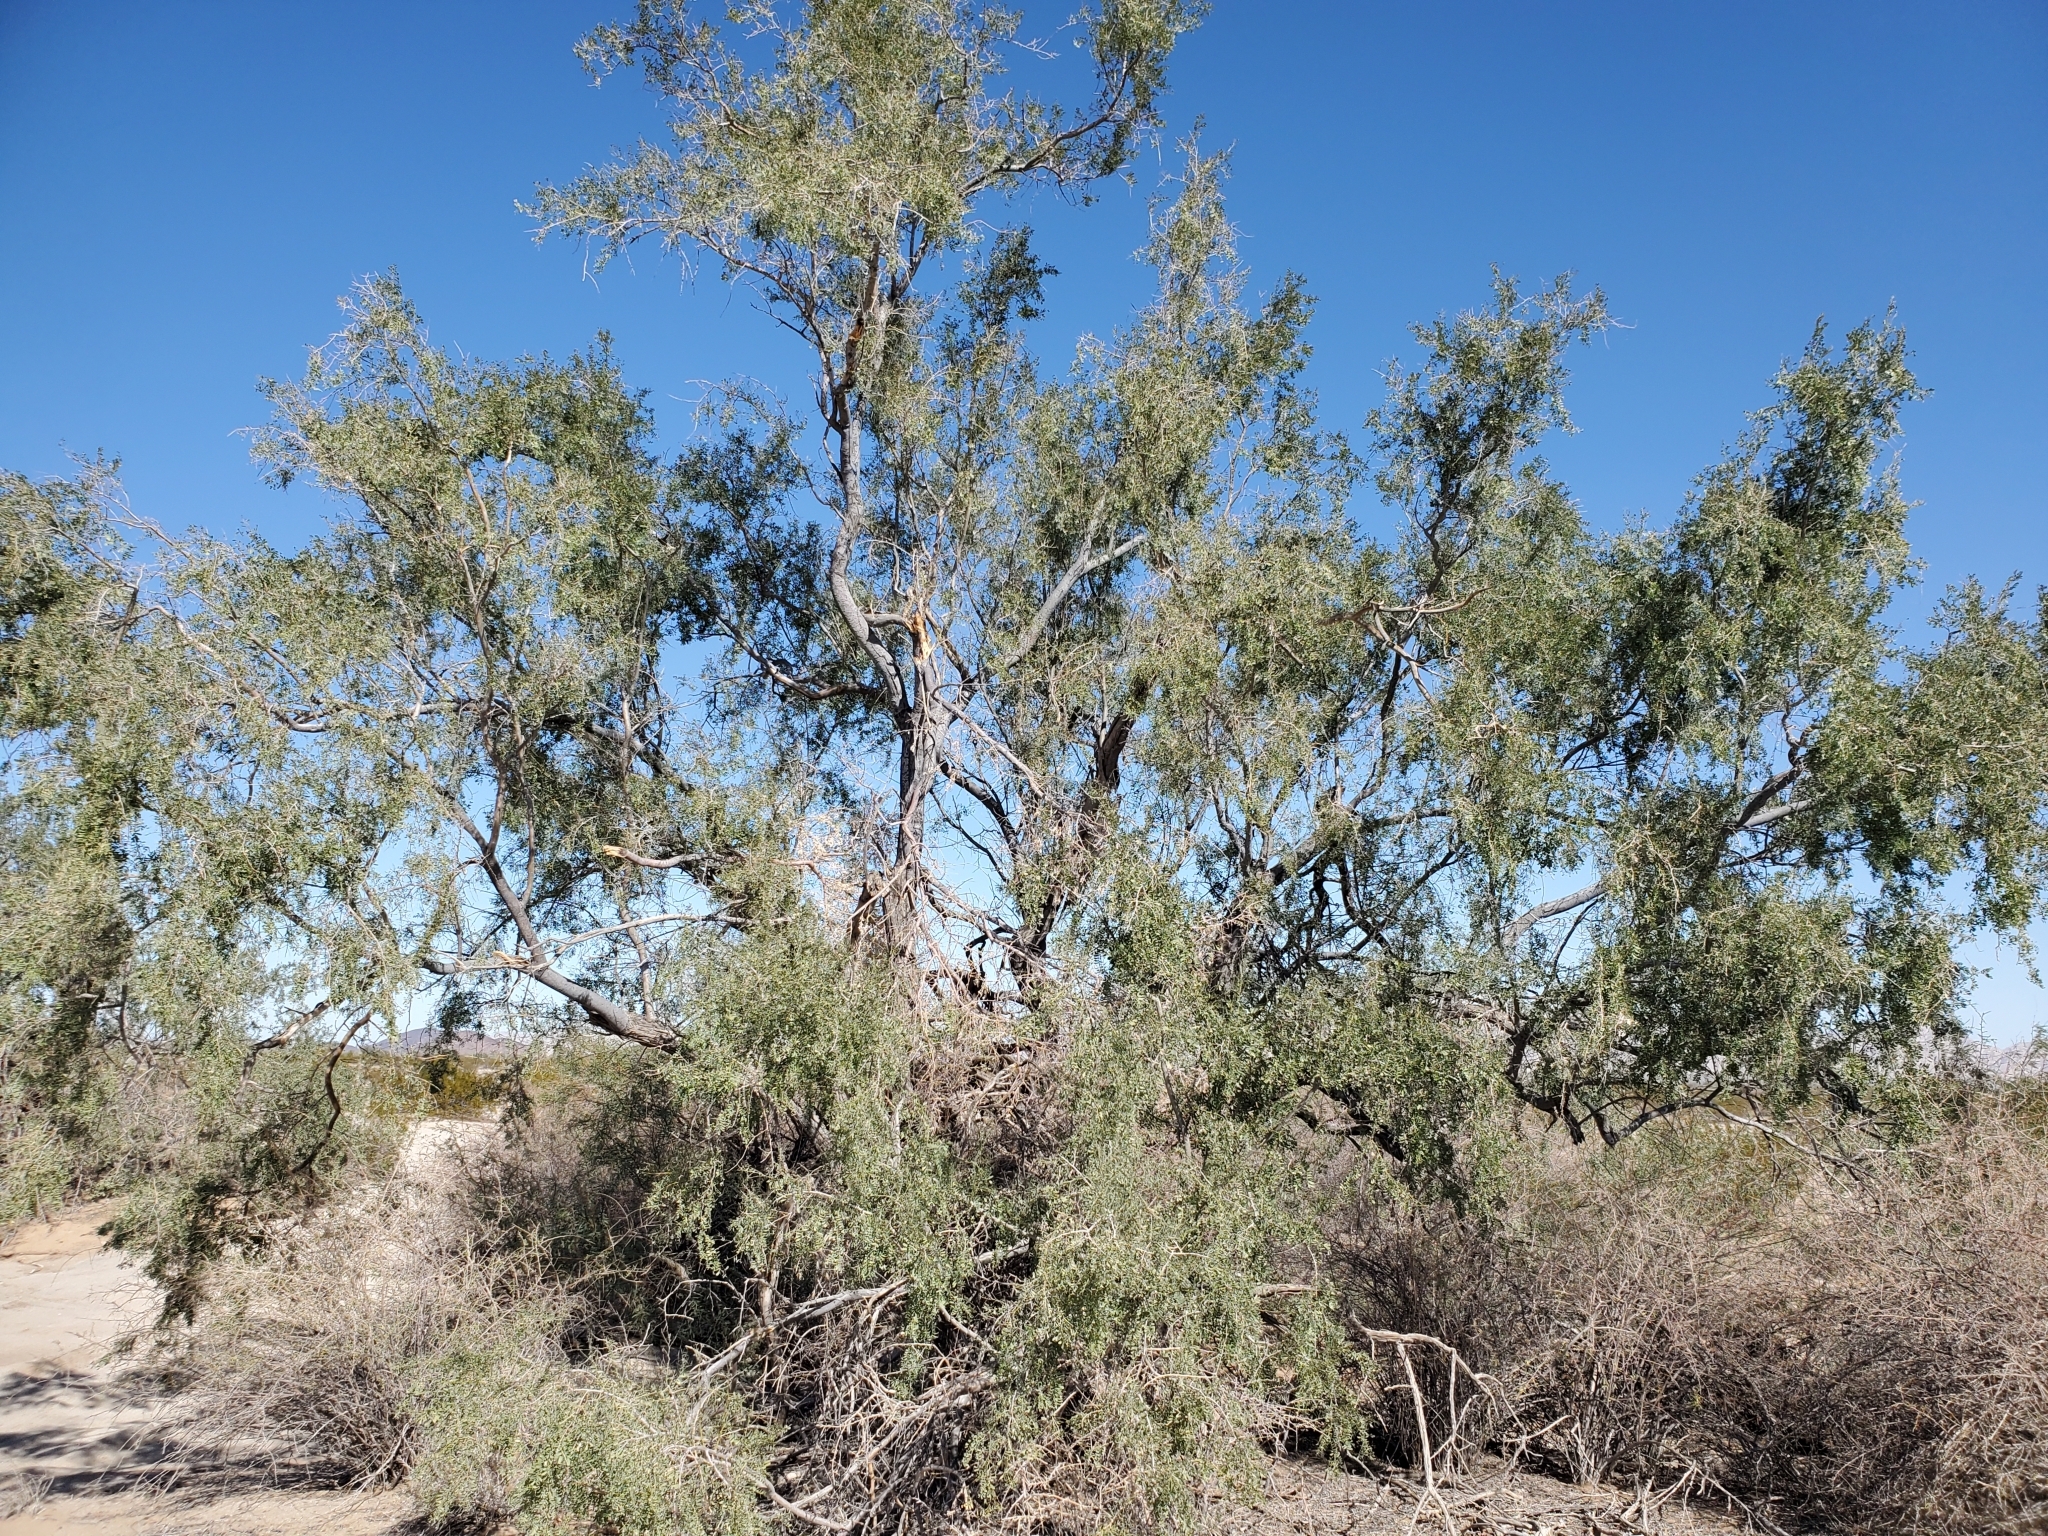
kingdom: Plantae
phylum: Tracheophyta
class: Magnoliopsida
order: Fabales
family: Fabaceae
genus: Olneya
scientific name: Olneya tesota
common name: Desert ironwood
